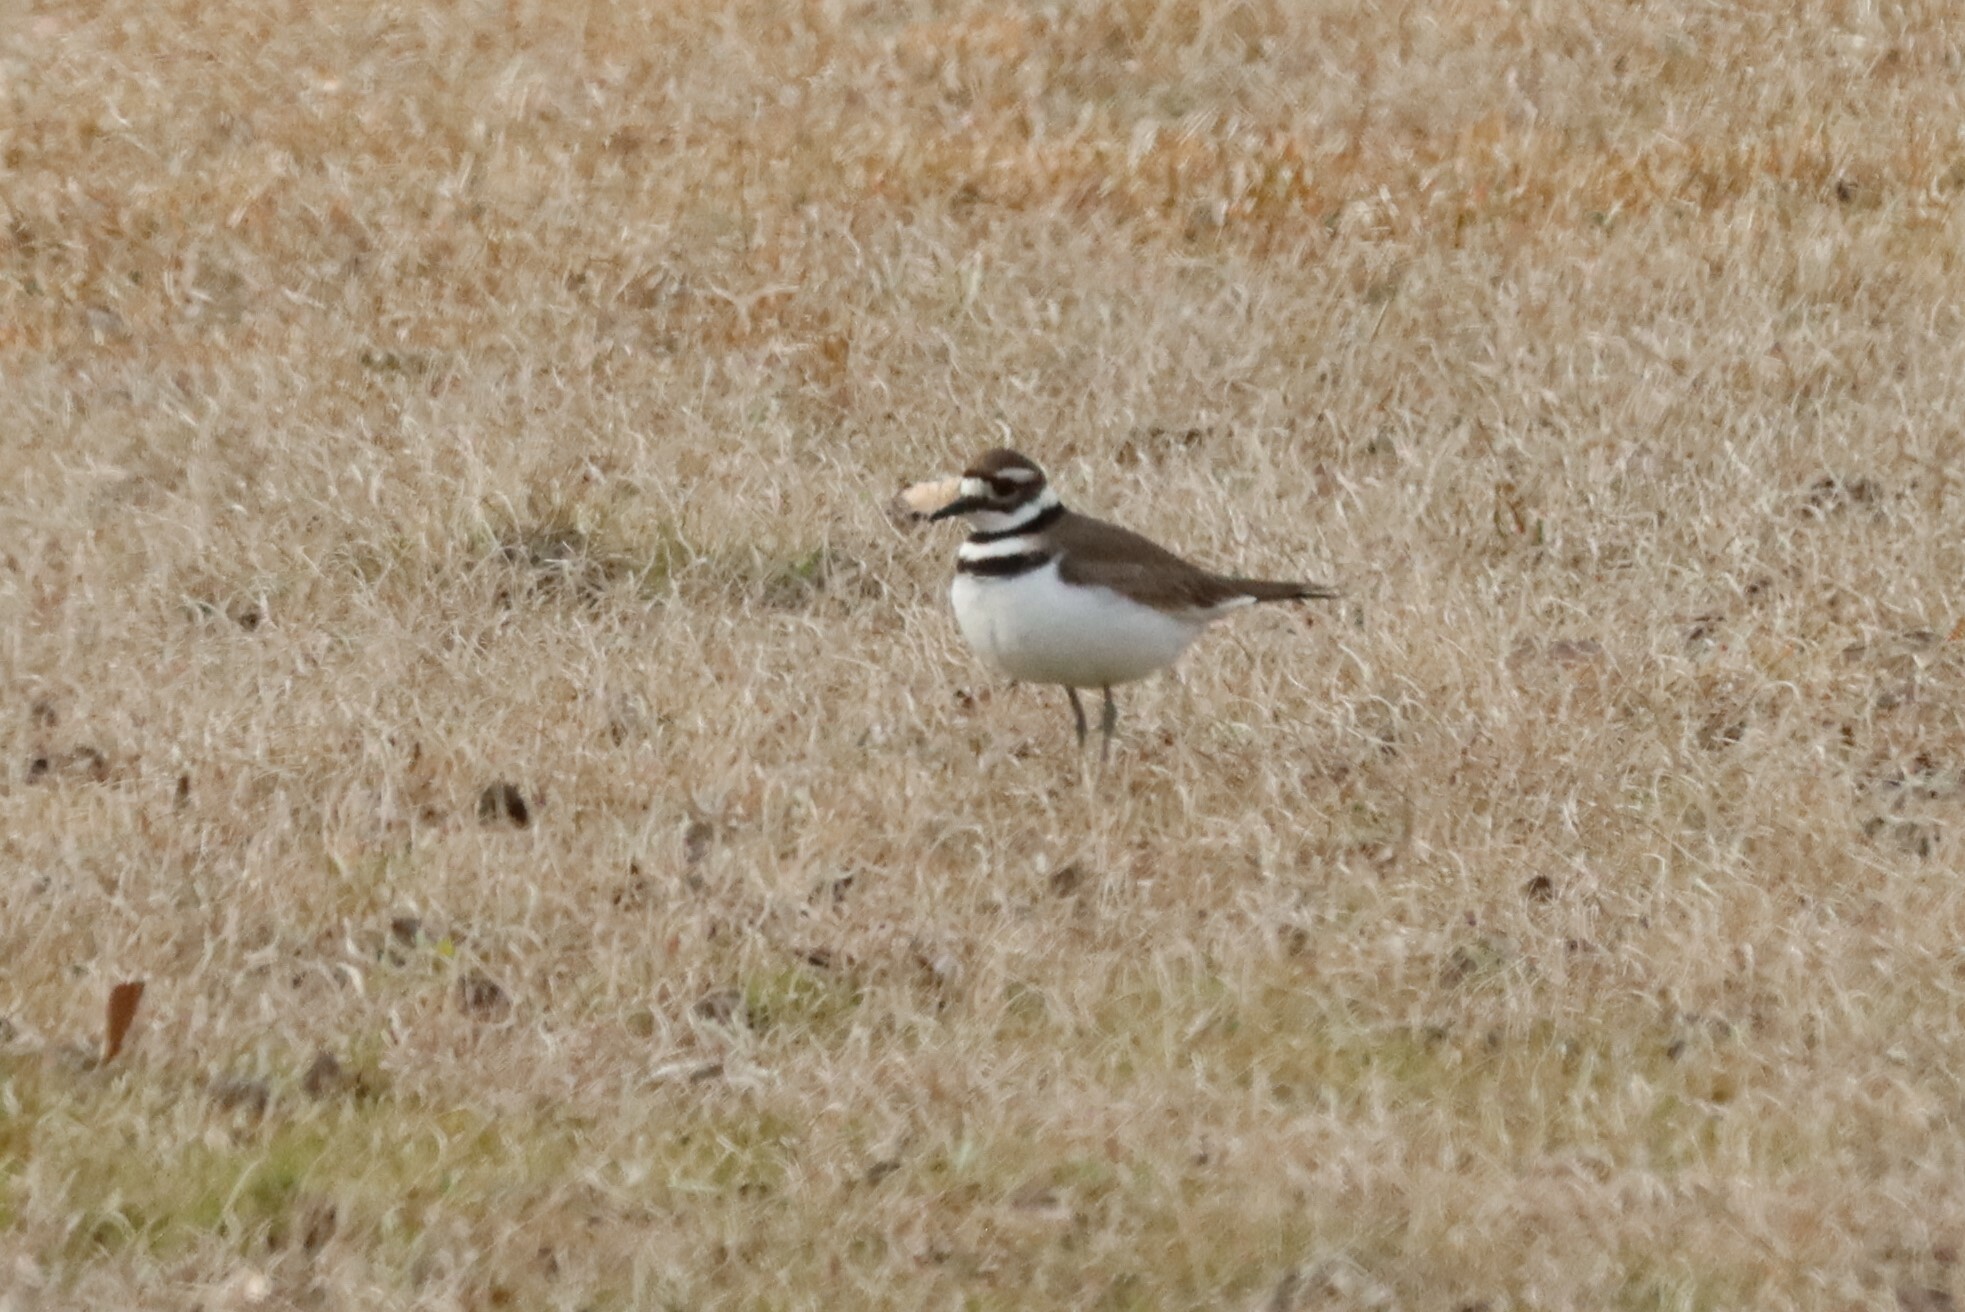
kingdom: Animalia
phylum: Chordata
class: Aves
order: Charadriiformes
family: Charadriidae
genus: Charadrius
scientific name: Charadrius vociferus
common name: Killdeer
